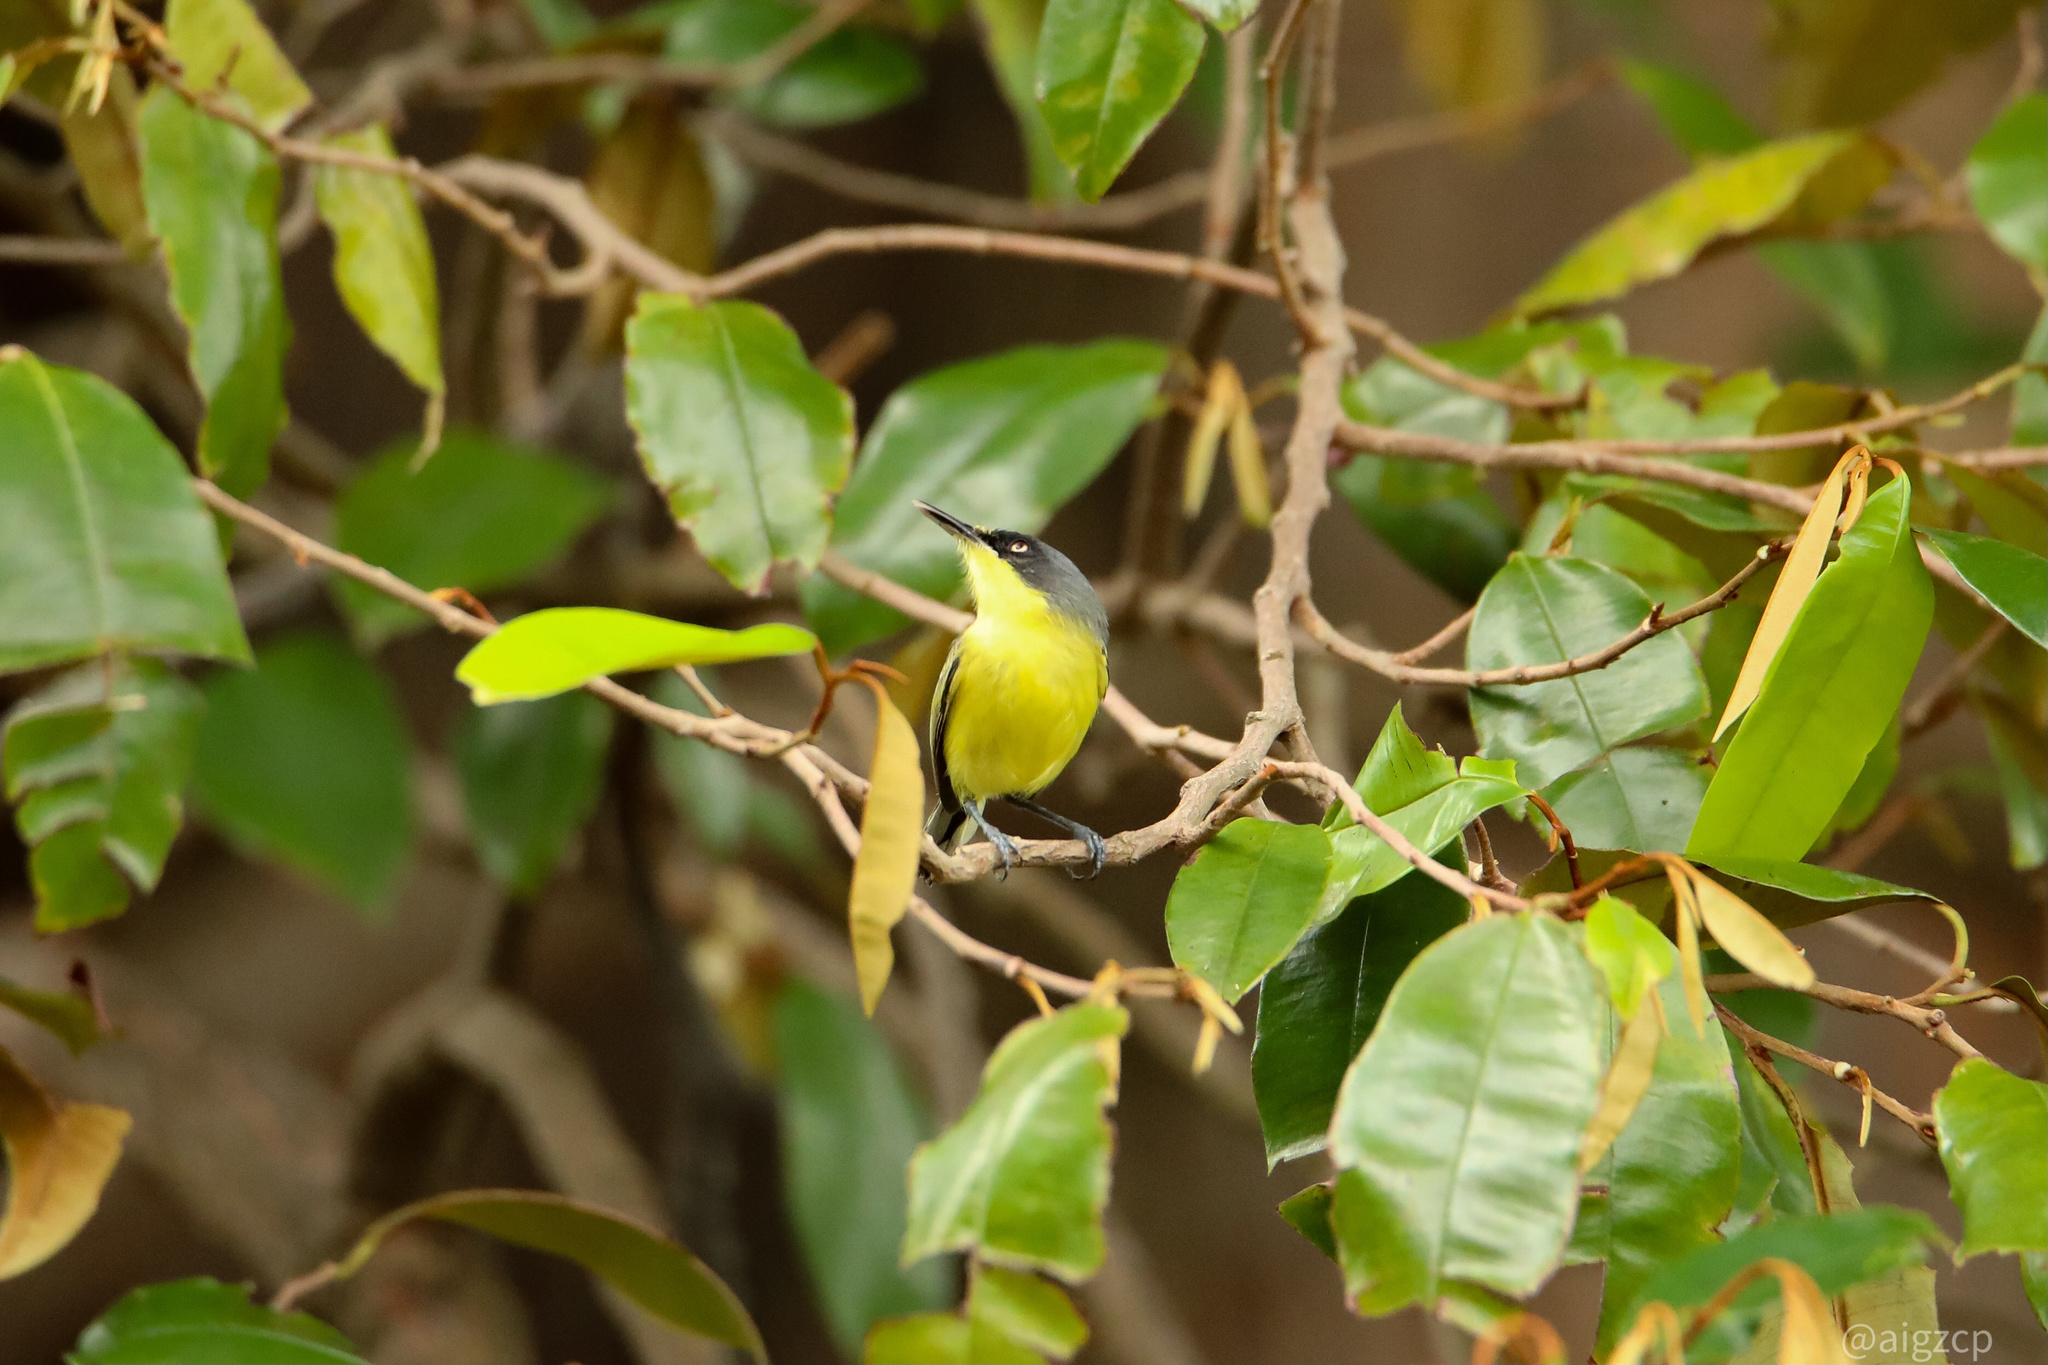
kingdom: Animalia
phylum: Chordata
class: Aves
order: Passeriformes
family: Tyrannidae
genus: Todirostrum
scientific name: Todirostrum cinereum
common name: Common tody-flycatcher
